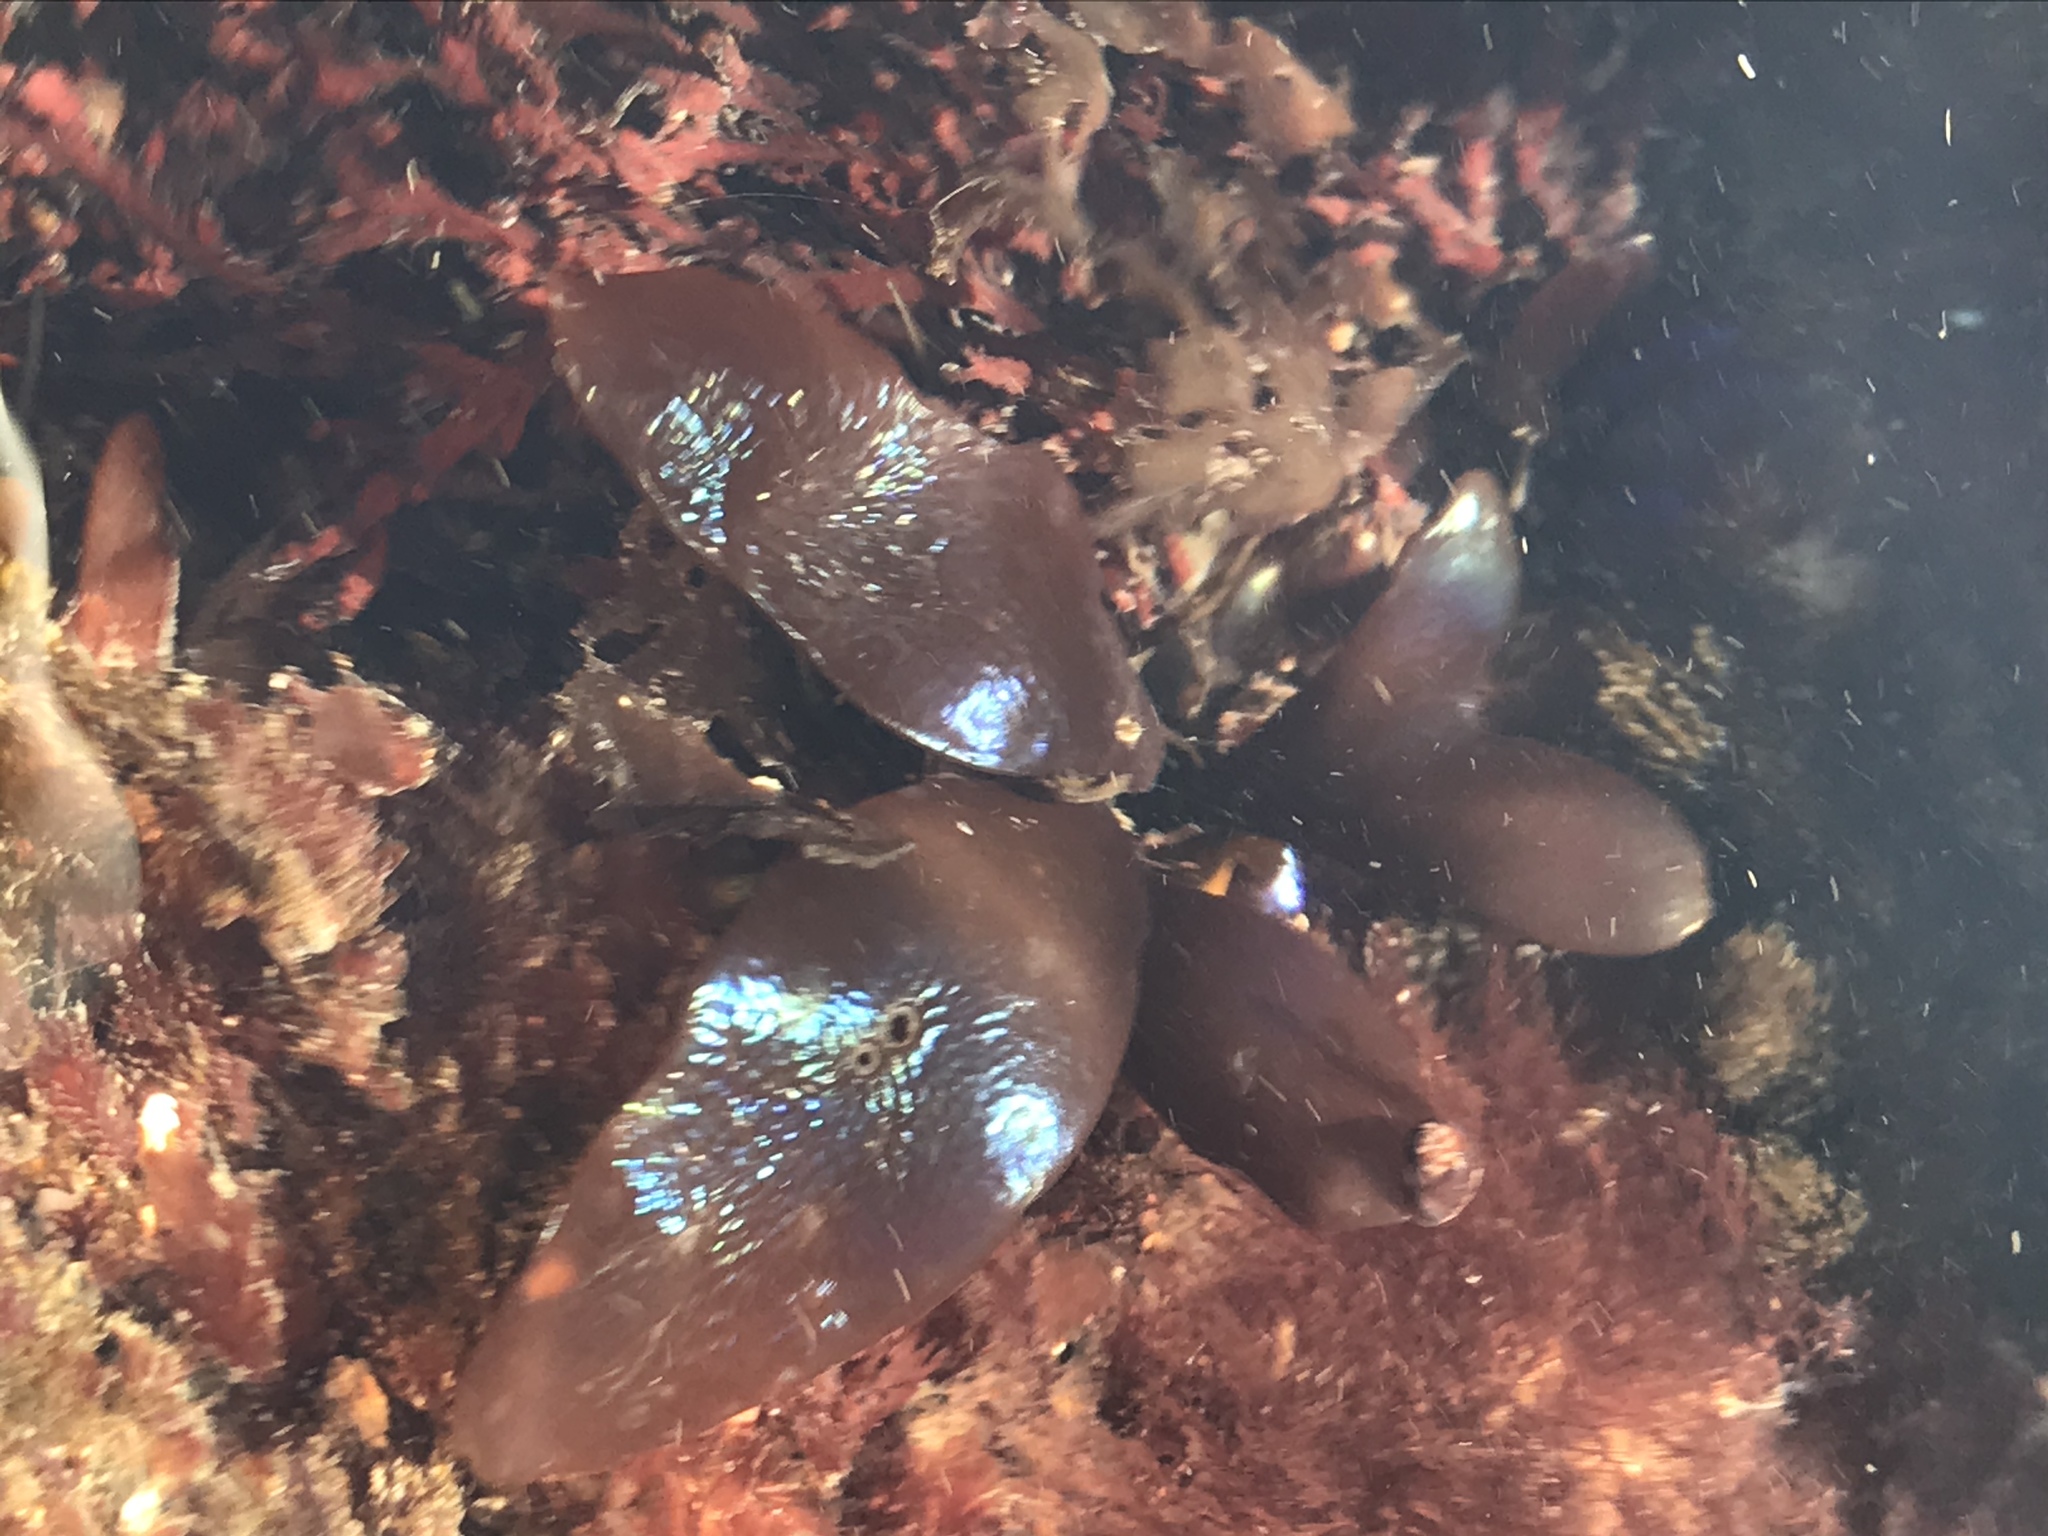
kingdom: Plantae
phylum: Rhodophyta
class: Florideophyceae
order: Gigartinales
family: Gigartinaceae
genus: Mazzaella
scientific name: Mazzaella splendens
